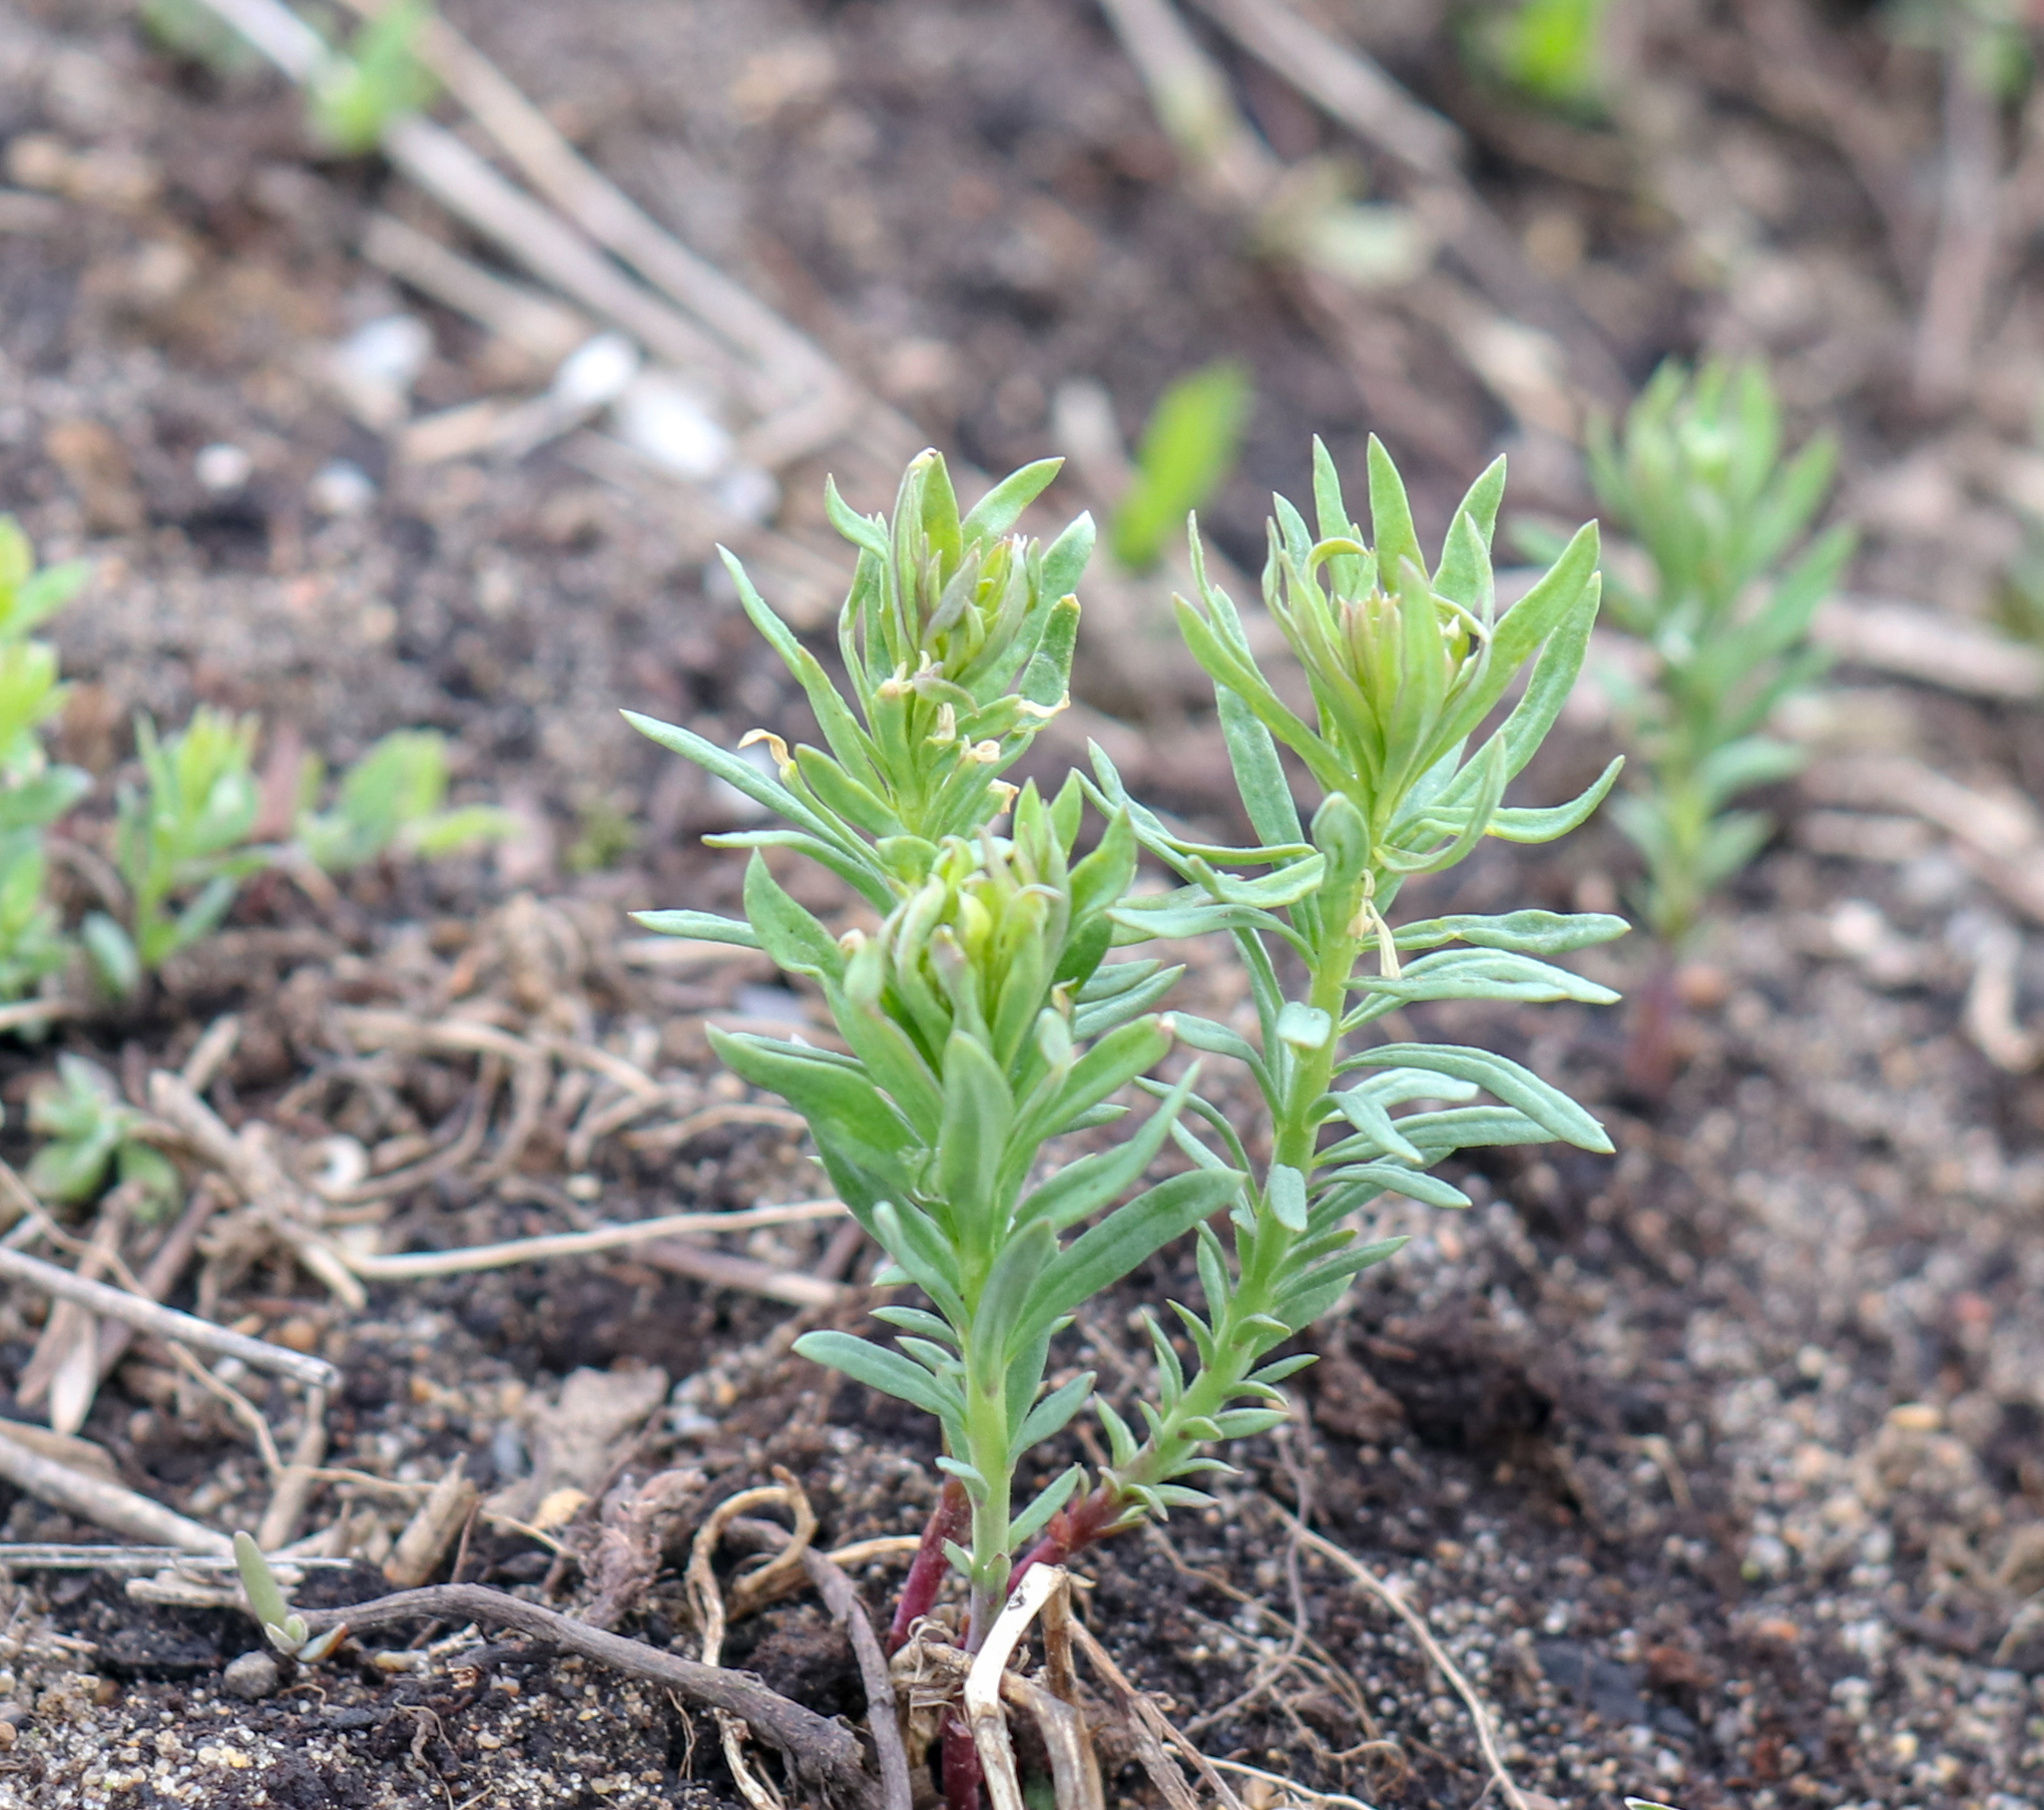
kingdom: Plantae
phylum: Tracheophyta
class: Magnoliopsida
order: Lamiales
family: Plantaginaceae
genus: Linaria
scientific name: Linaria vulgaris
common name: Butter and eggs
